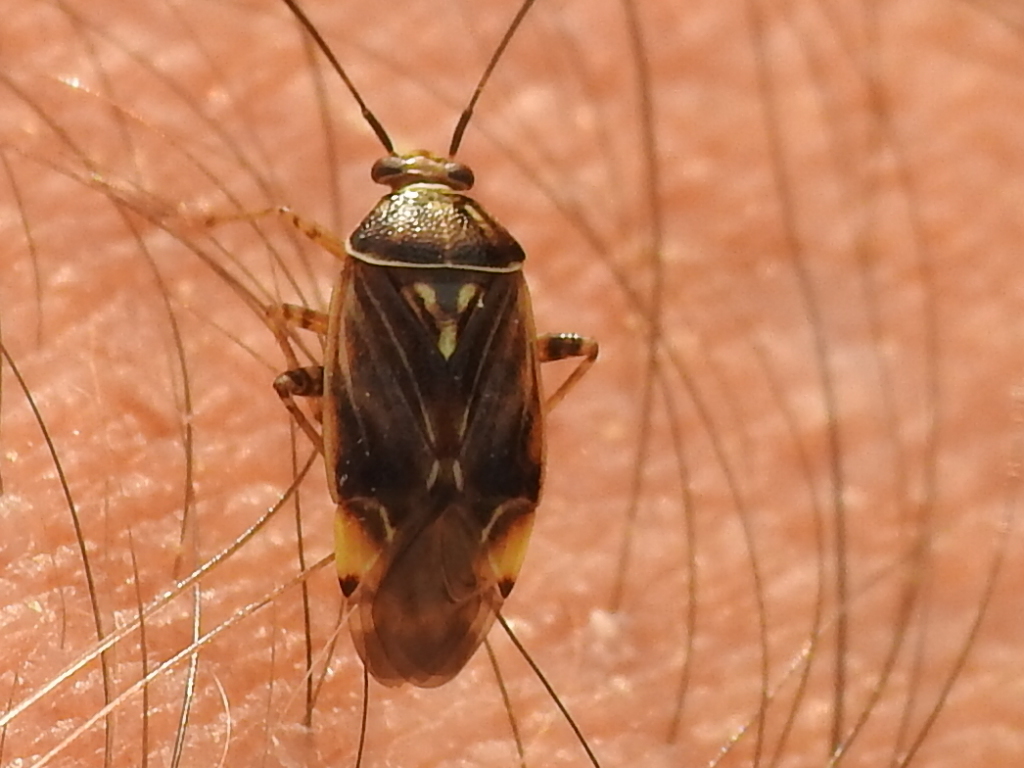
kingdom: Animalia
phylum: Arthropoda
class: Insecta
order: Hemiptera
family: Miridae
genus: Lygus
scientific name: Lygus lineolaris
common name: North american tarnished plant bug
